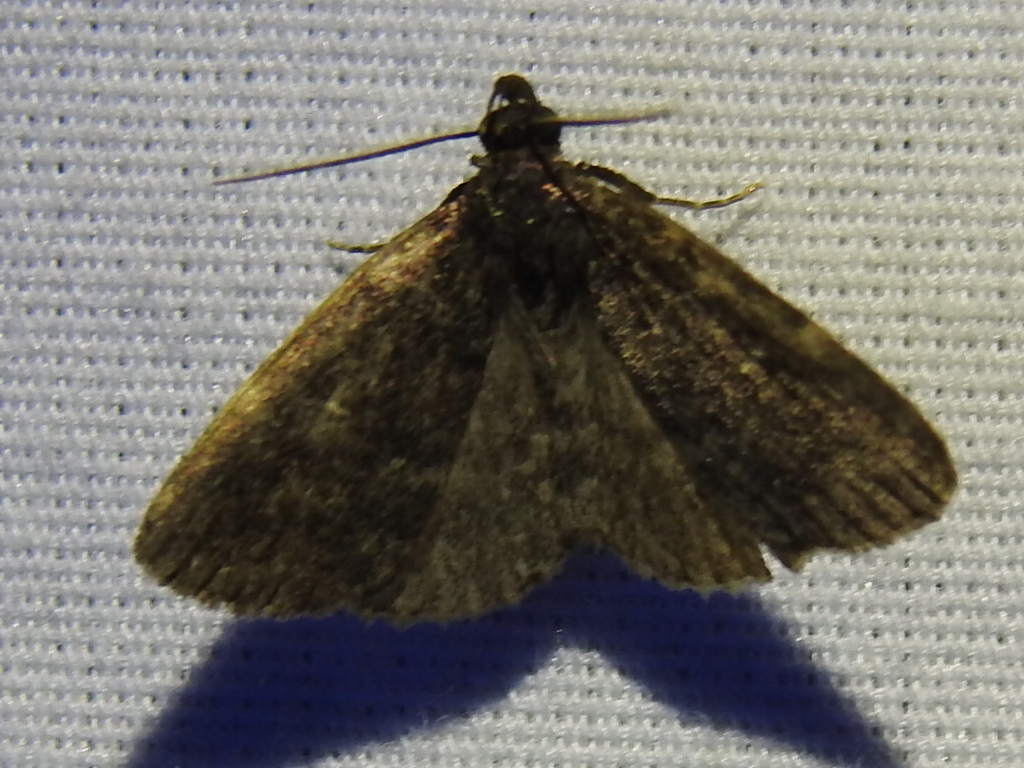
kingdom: Animalia
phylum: Arthropoda
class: Insecta
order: Lepidoptera
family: Erebidae
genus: Idia
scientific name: Idia julia
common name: Julia's idia moth
